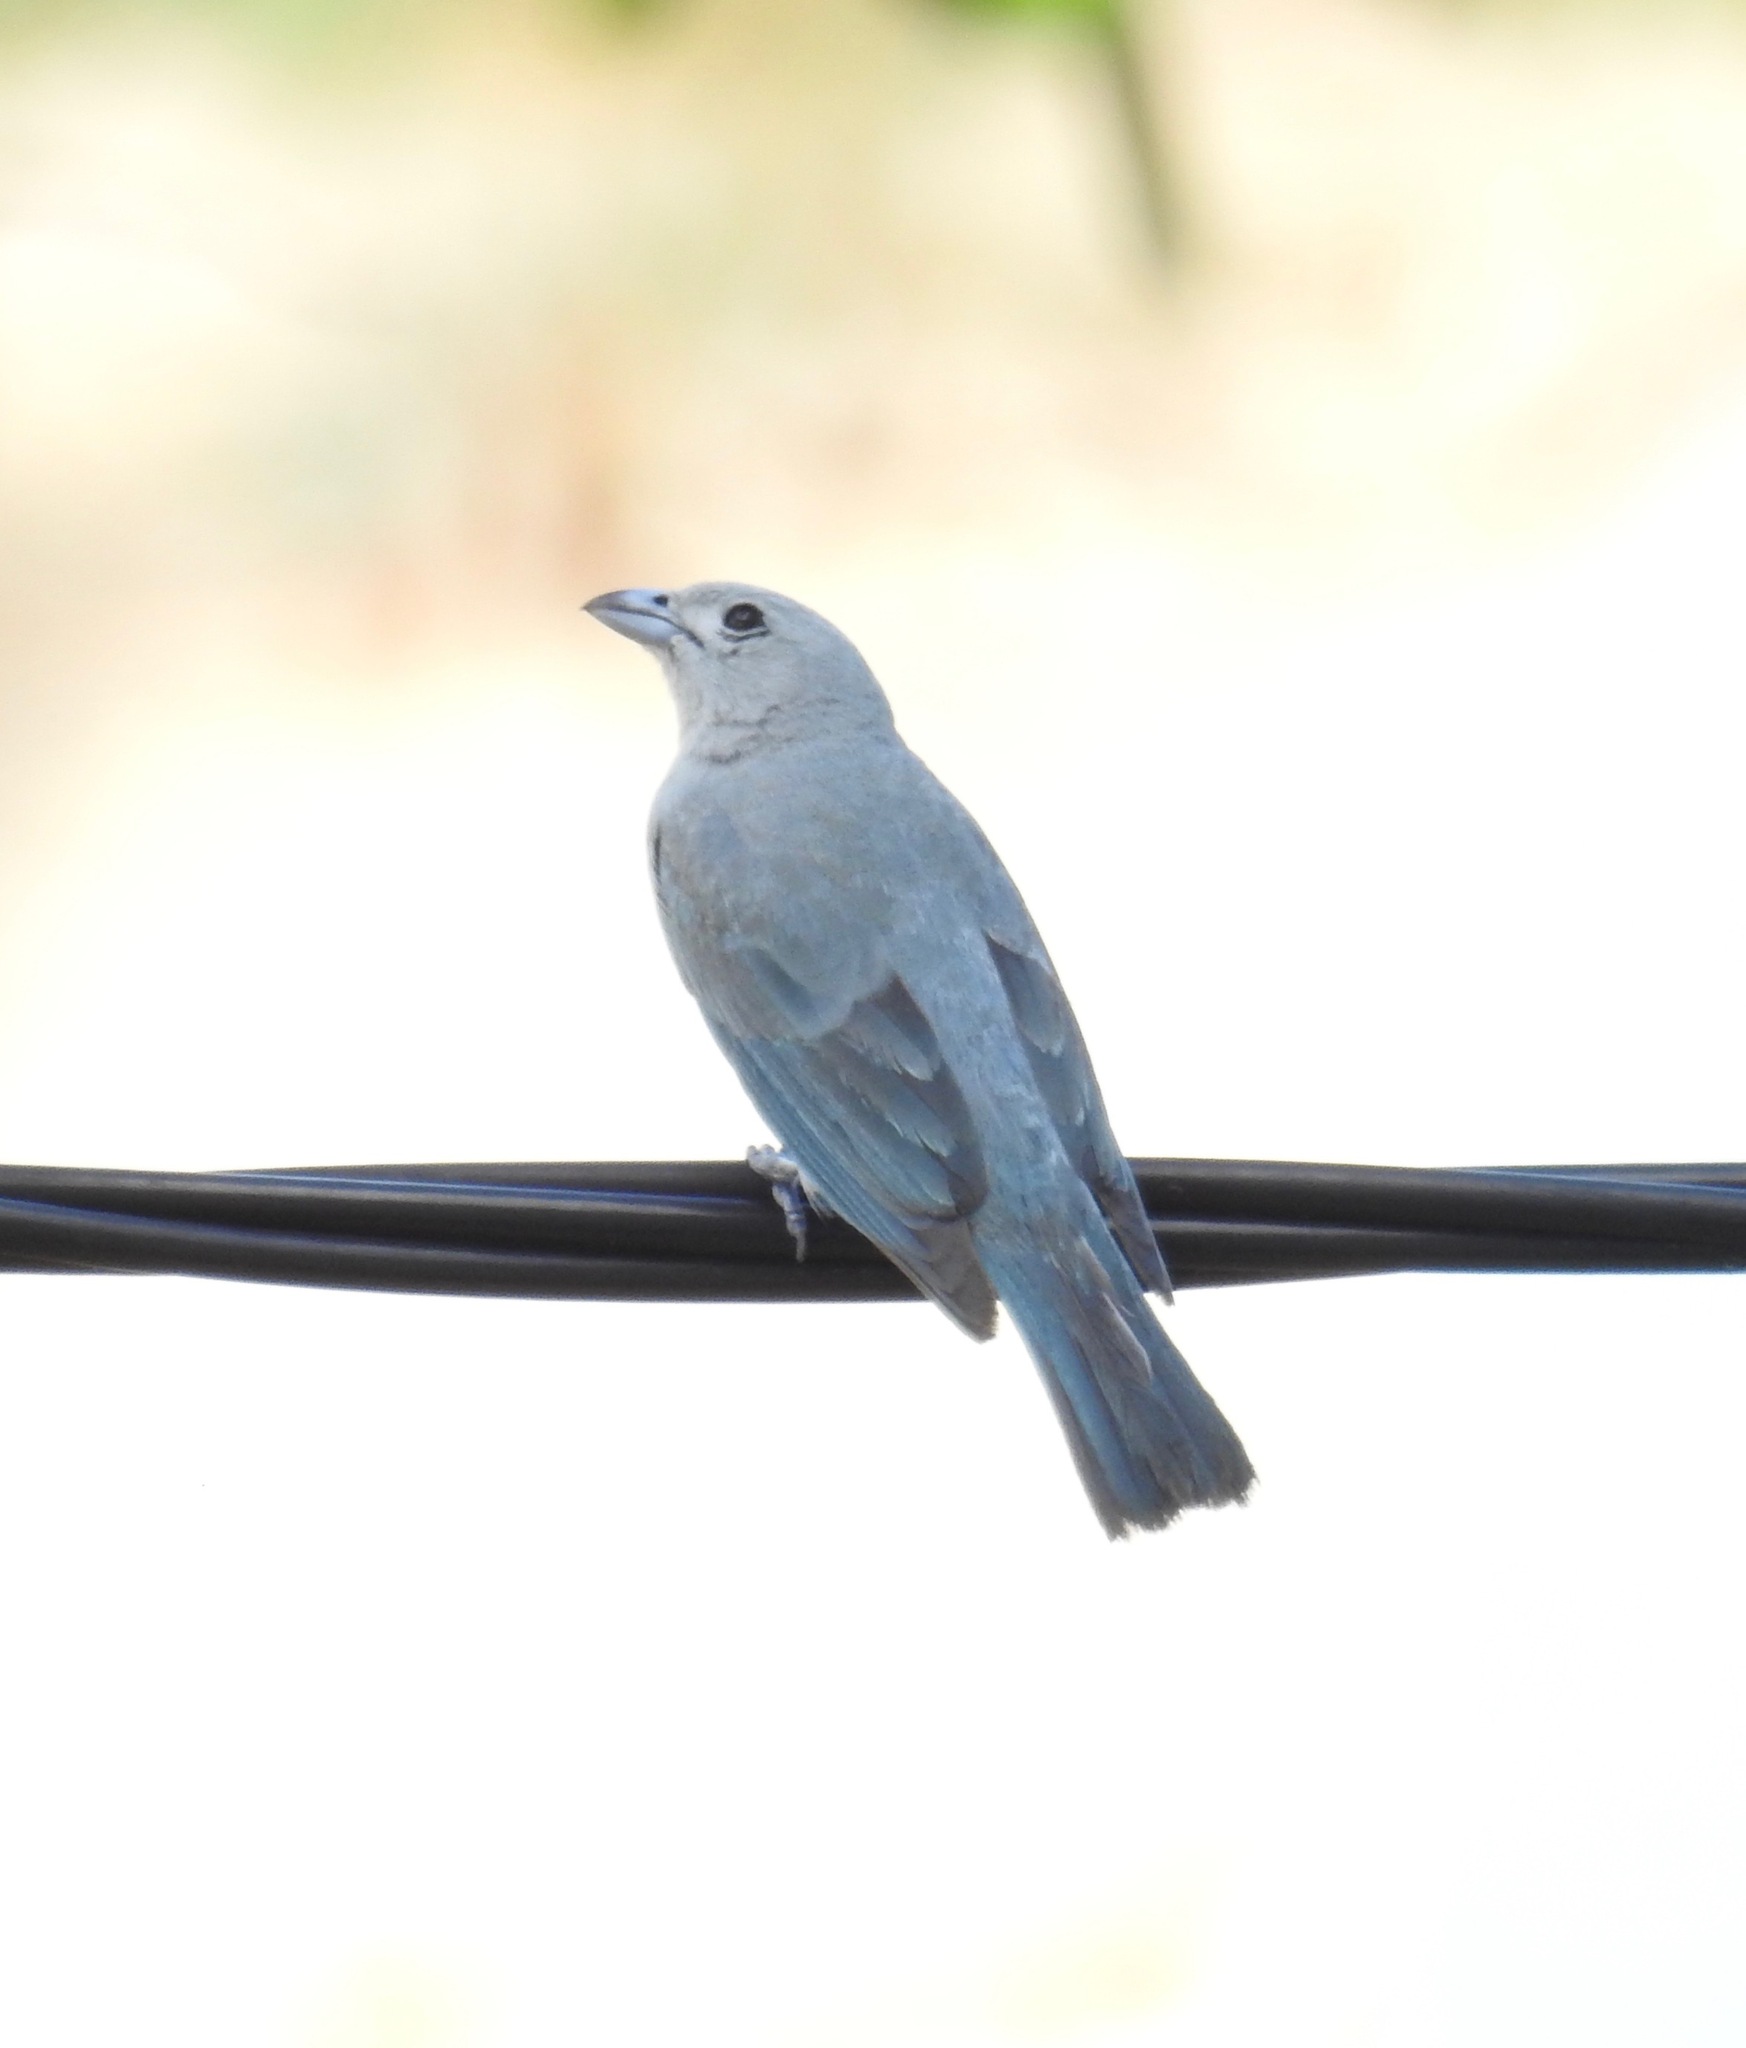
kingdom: Animalia
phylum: Chordata
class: Aves
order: Passeriformes
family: Thraupidae
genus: Thraupis
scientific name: Thraupis sayaca
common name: Sayaca tanager
